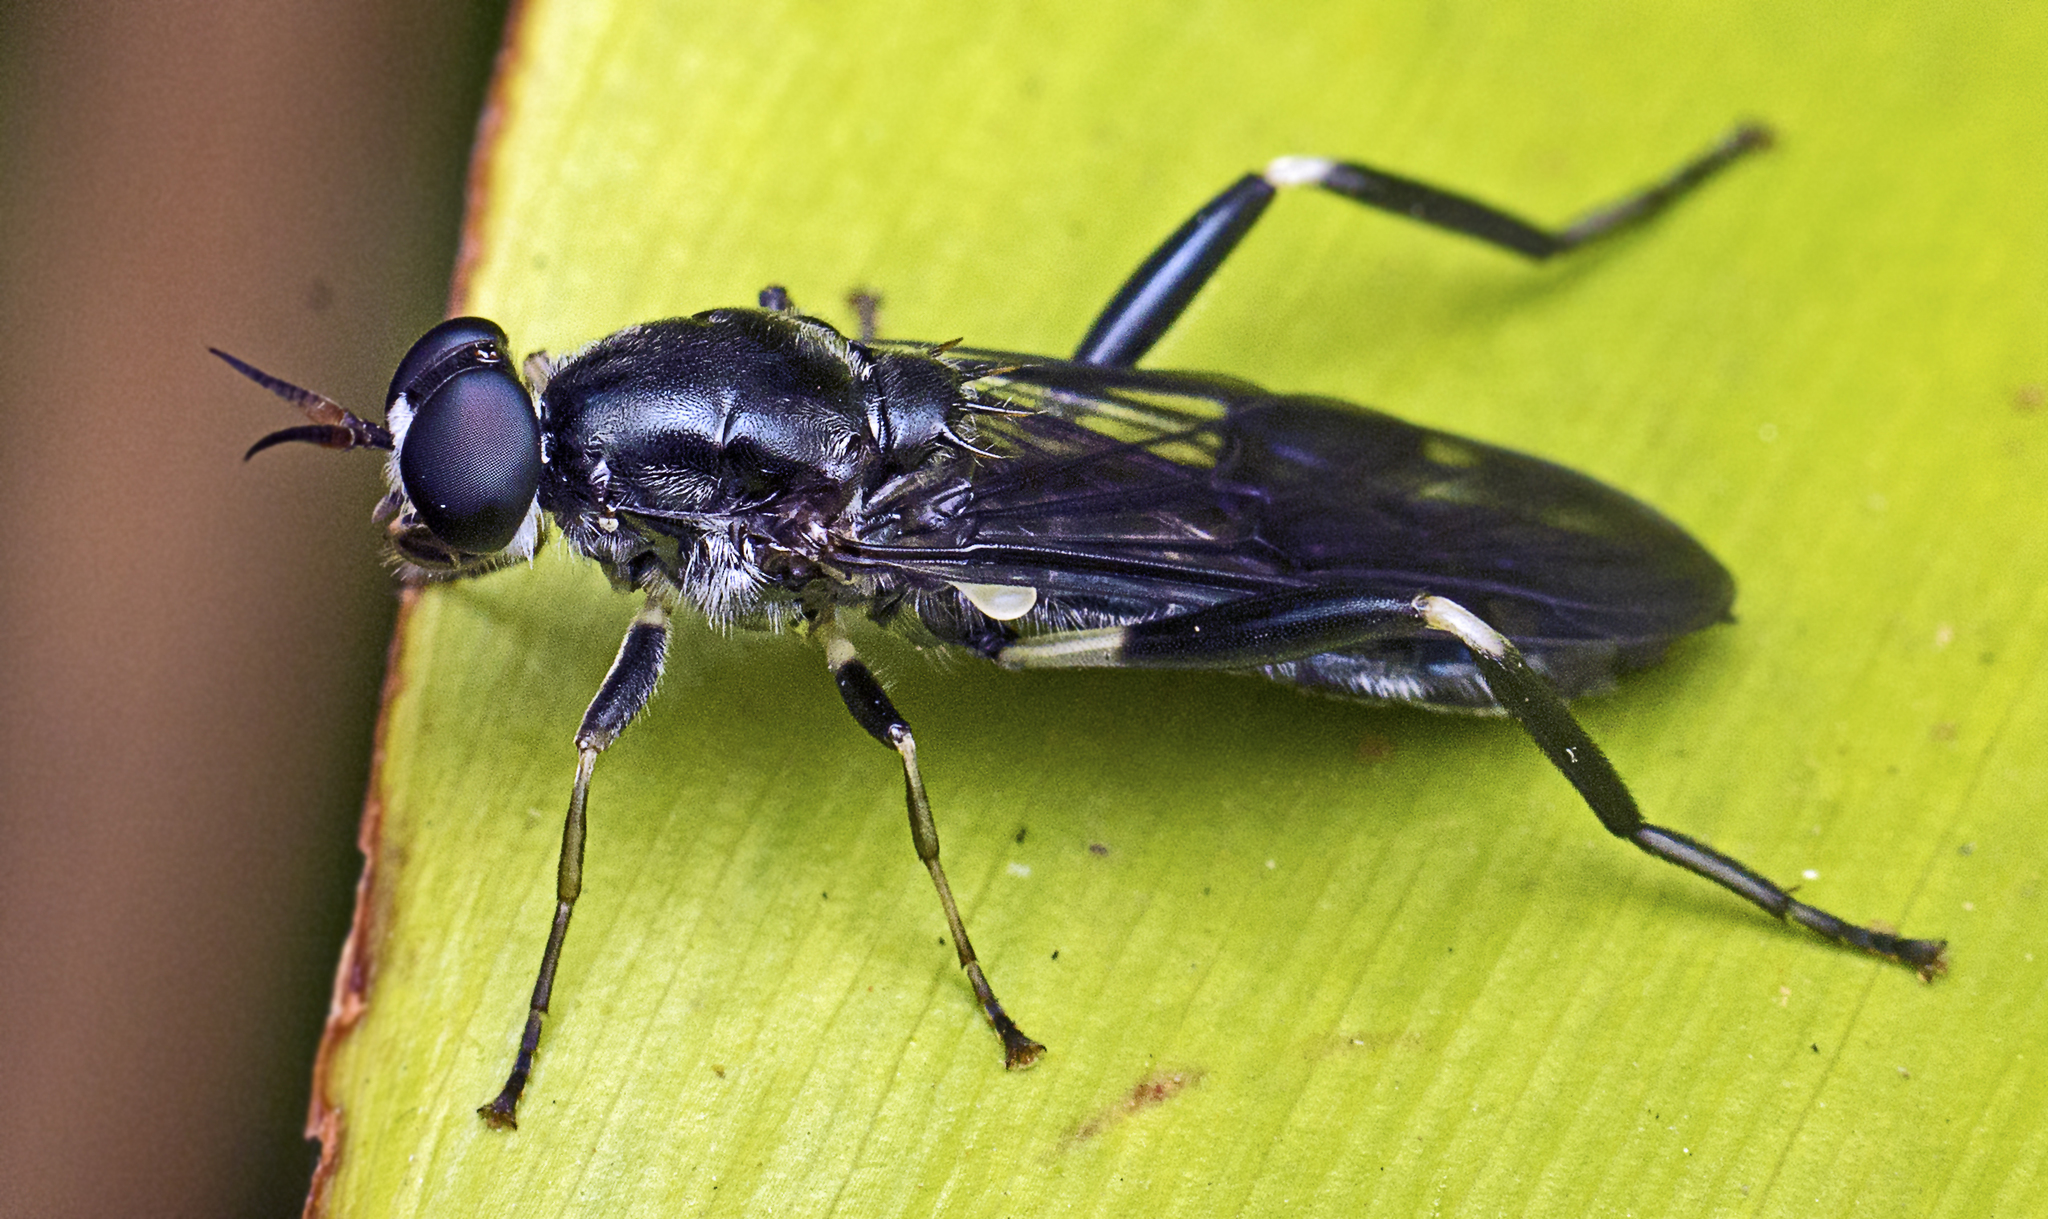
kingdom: Animalia
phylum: Arthropoda
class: Insecta
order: Diptera
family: Stratiomyidae
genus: Exaireta
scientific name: Exaireta spinigera
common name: Blue soldier fly
